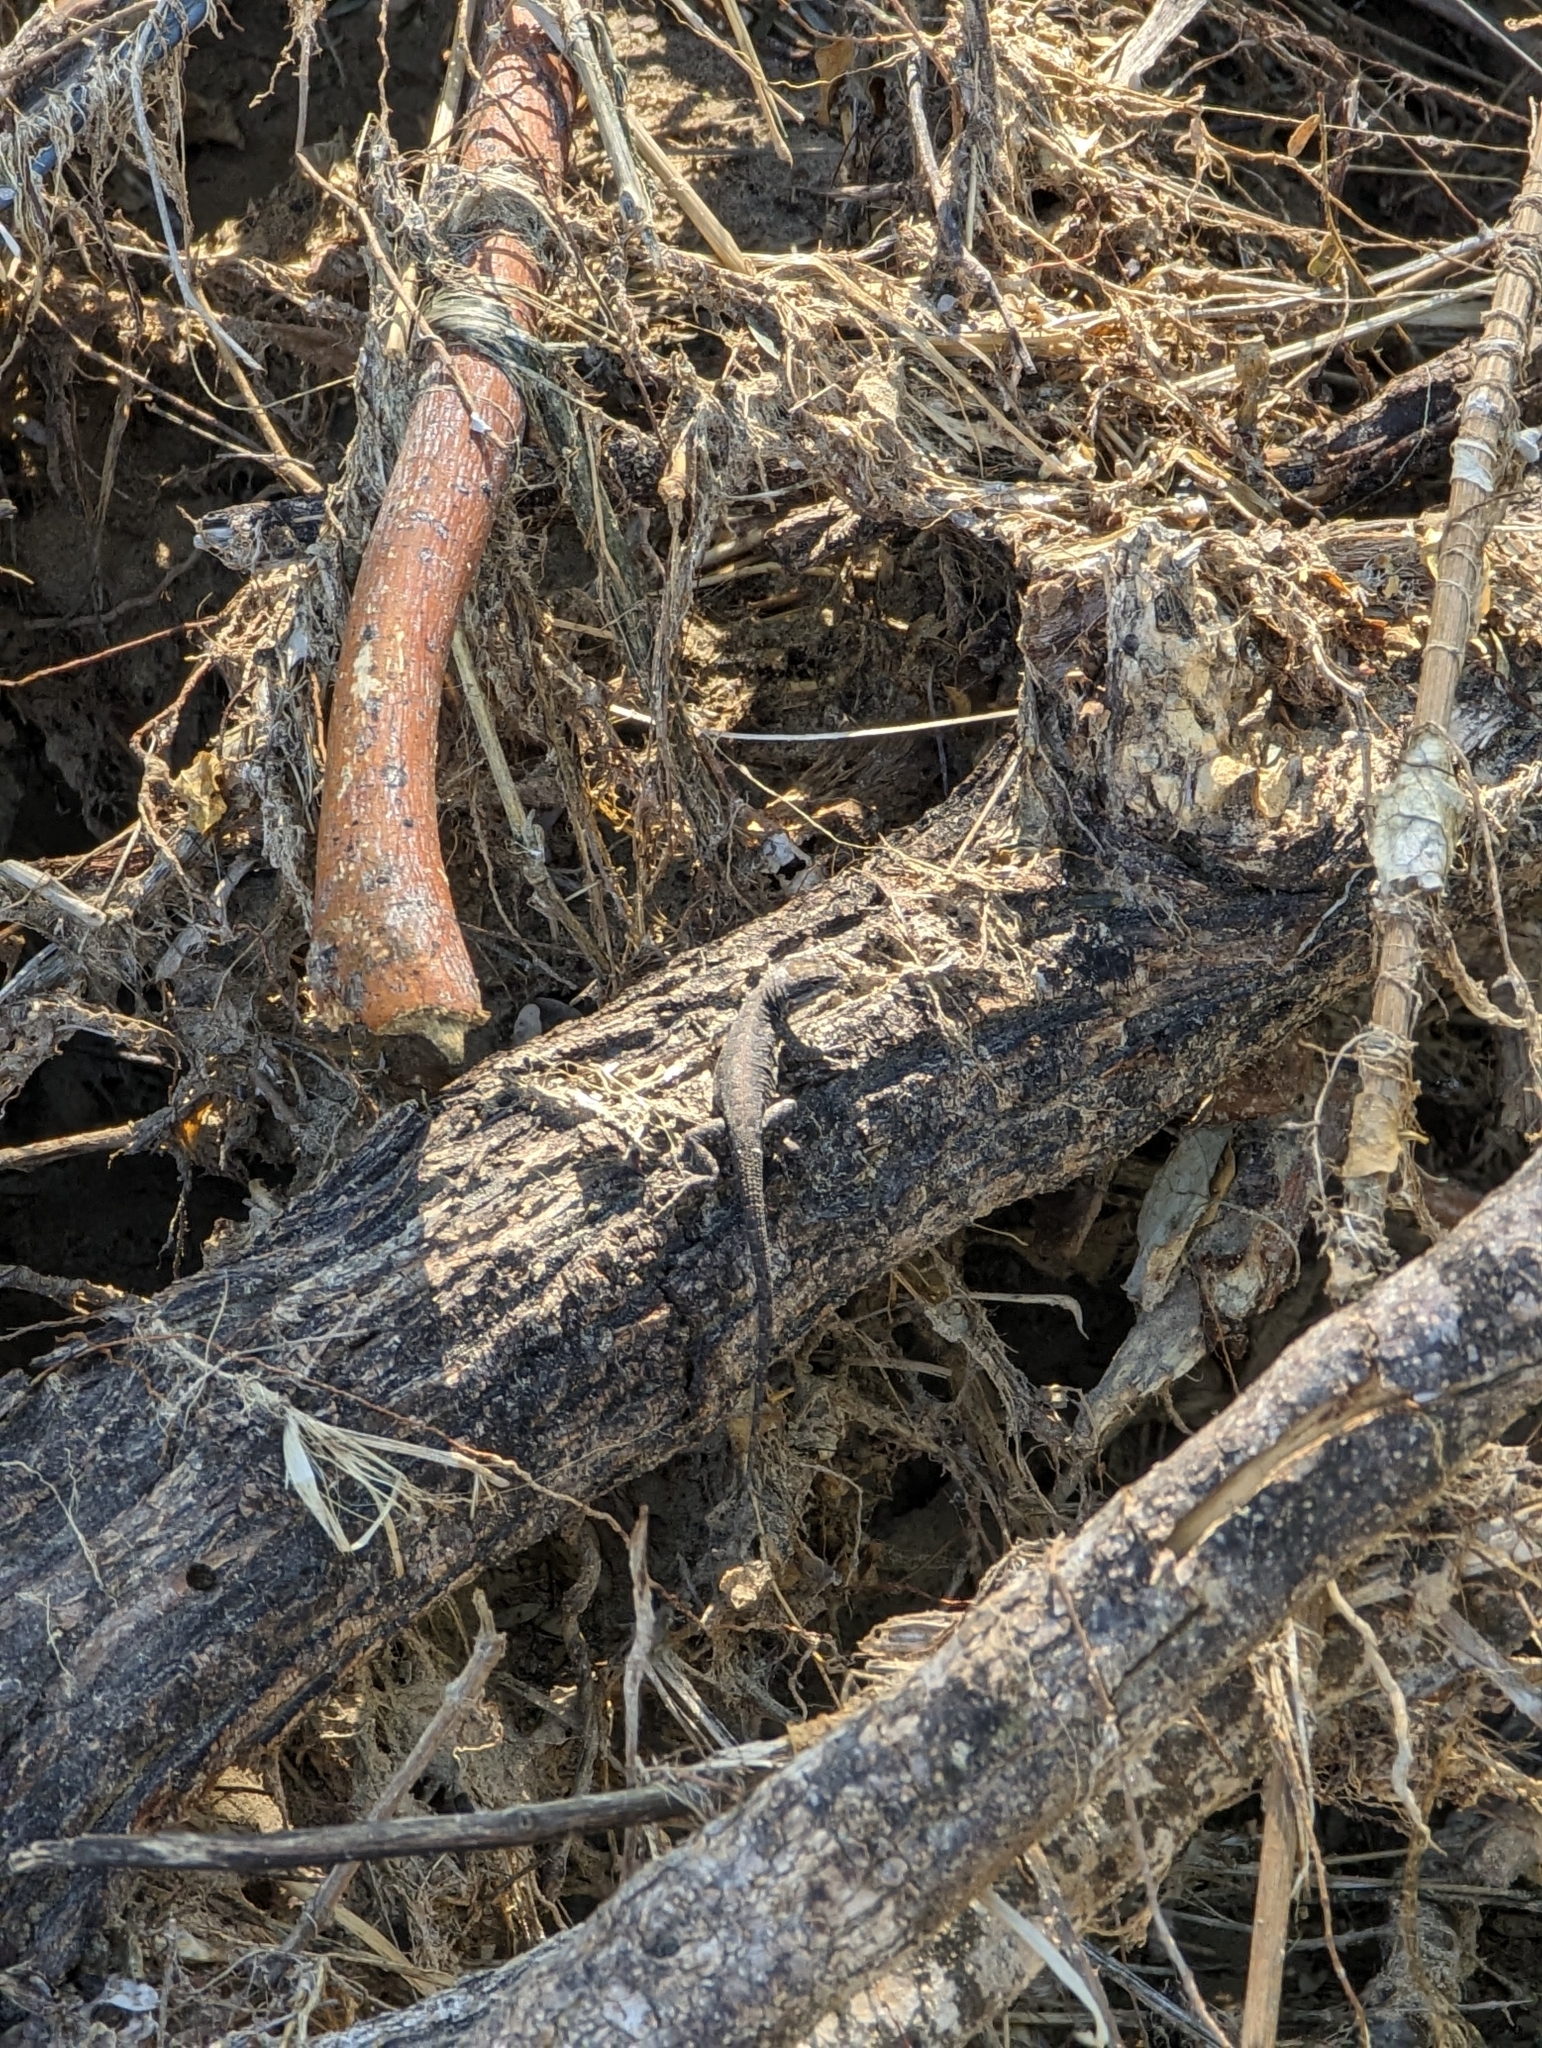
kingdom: Animalia
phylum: Chordata
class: Squamata
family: Phrynosomatidae
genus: Urosaurus
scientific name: Urosaurus nigricauda
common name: Baja california brush lizard
